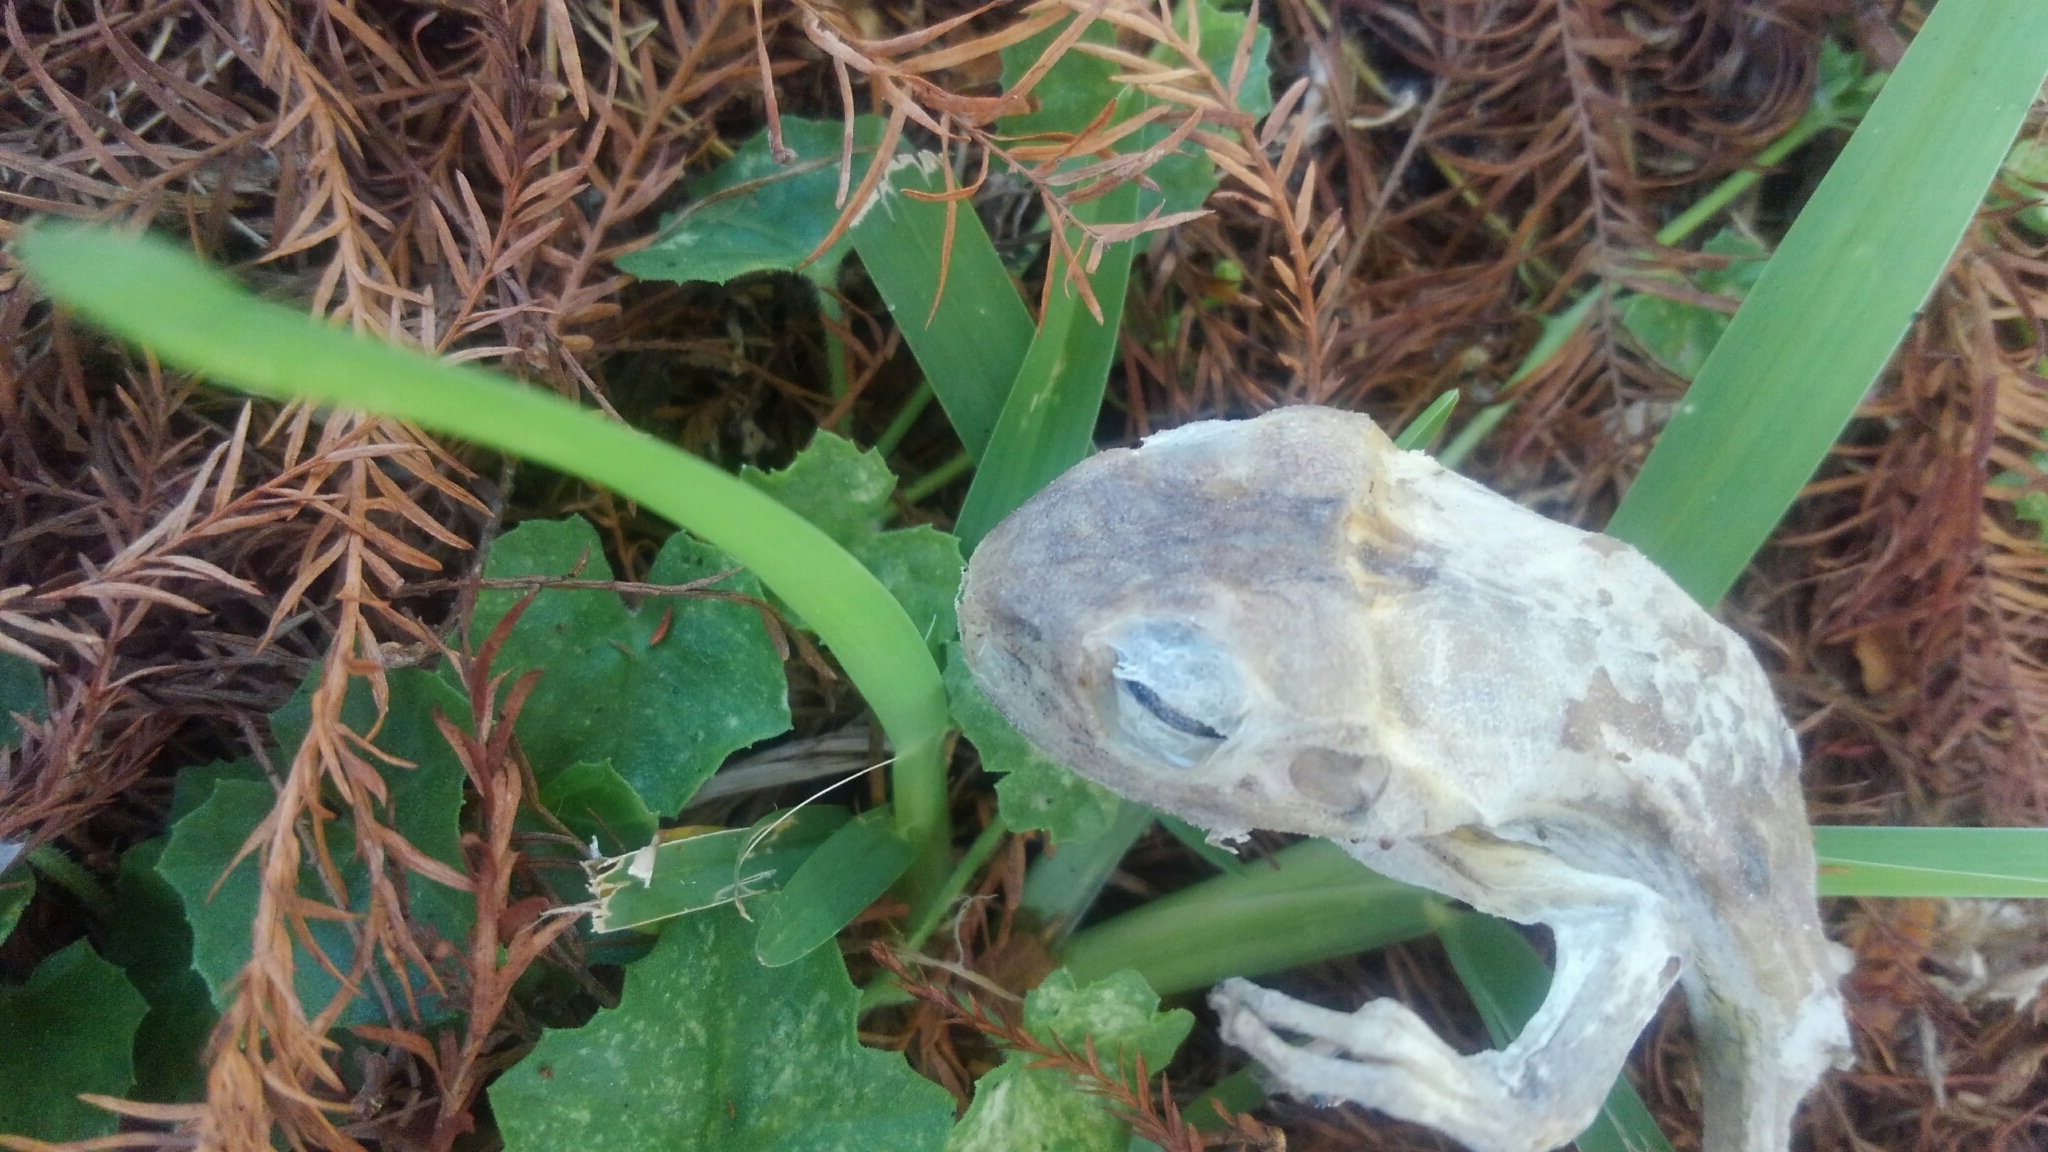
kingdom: Animalia
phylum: Chordata
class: Amphibia
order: Anura
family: Hylidae
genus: Osteopilus
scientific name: Osteopilus septentrionalis
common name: Cuban treefrog
